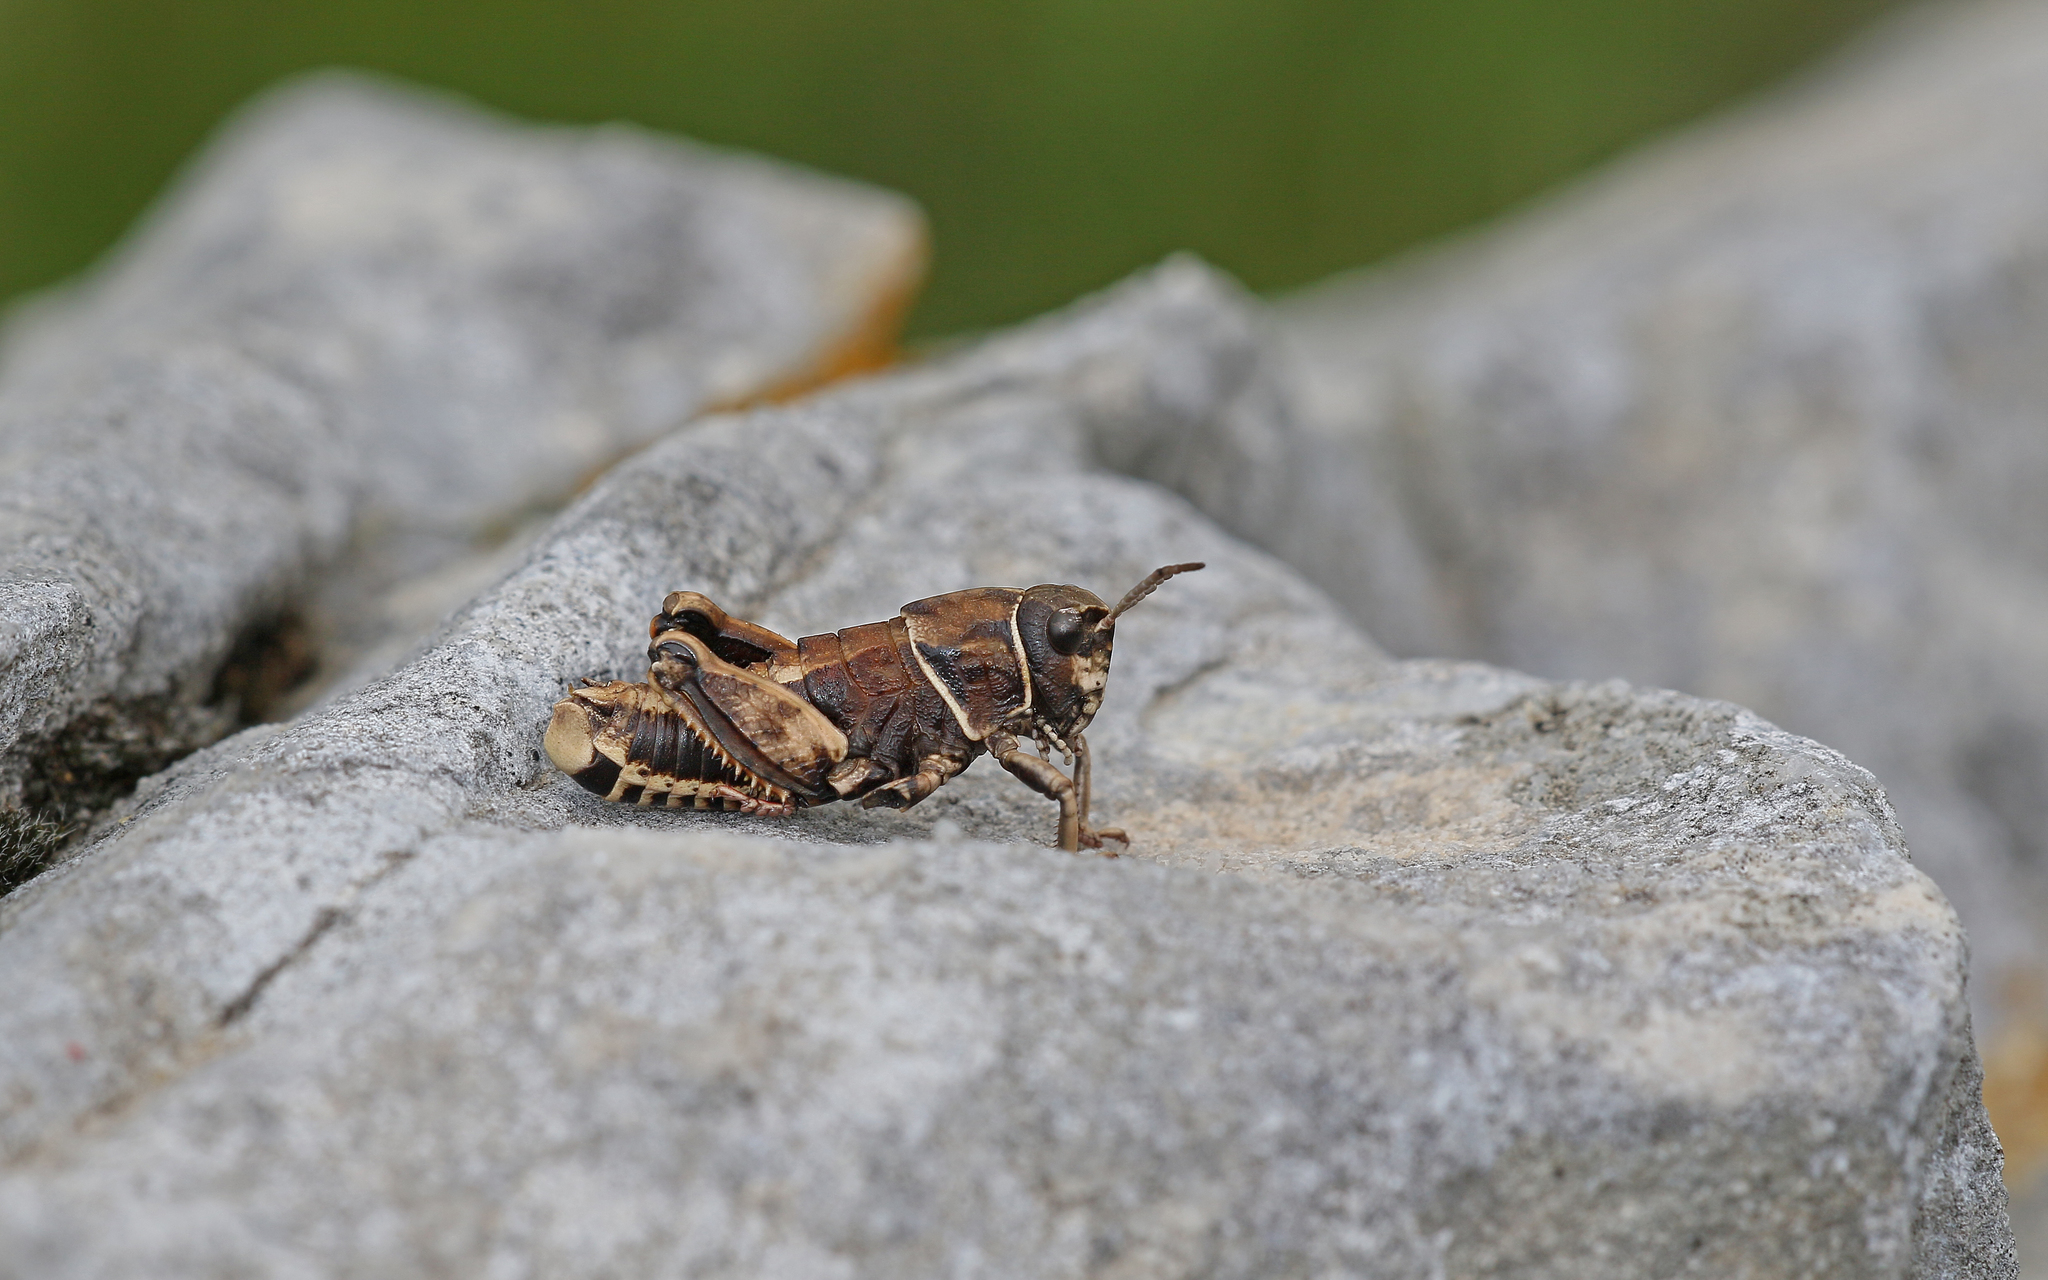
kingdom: Animalia
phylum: Arthropoda
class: Insecta
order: Orthoptera
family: Pamphagidae
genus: Nocaracris
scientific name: Nocaracris bulgaricus
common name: Bulgarian stone grasshopper
